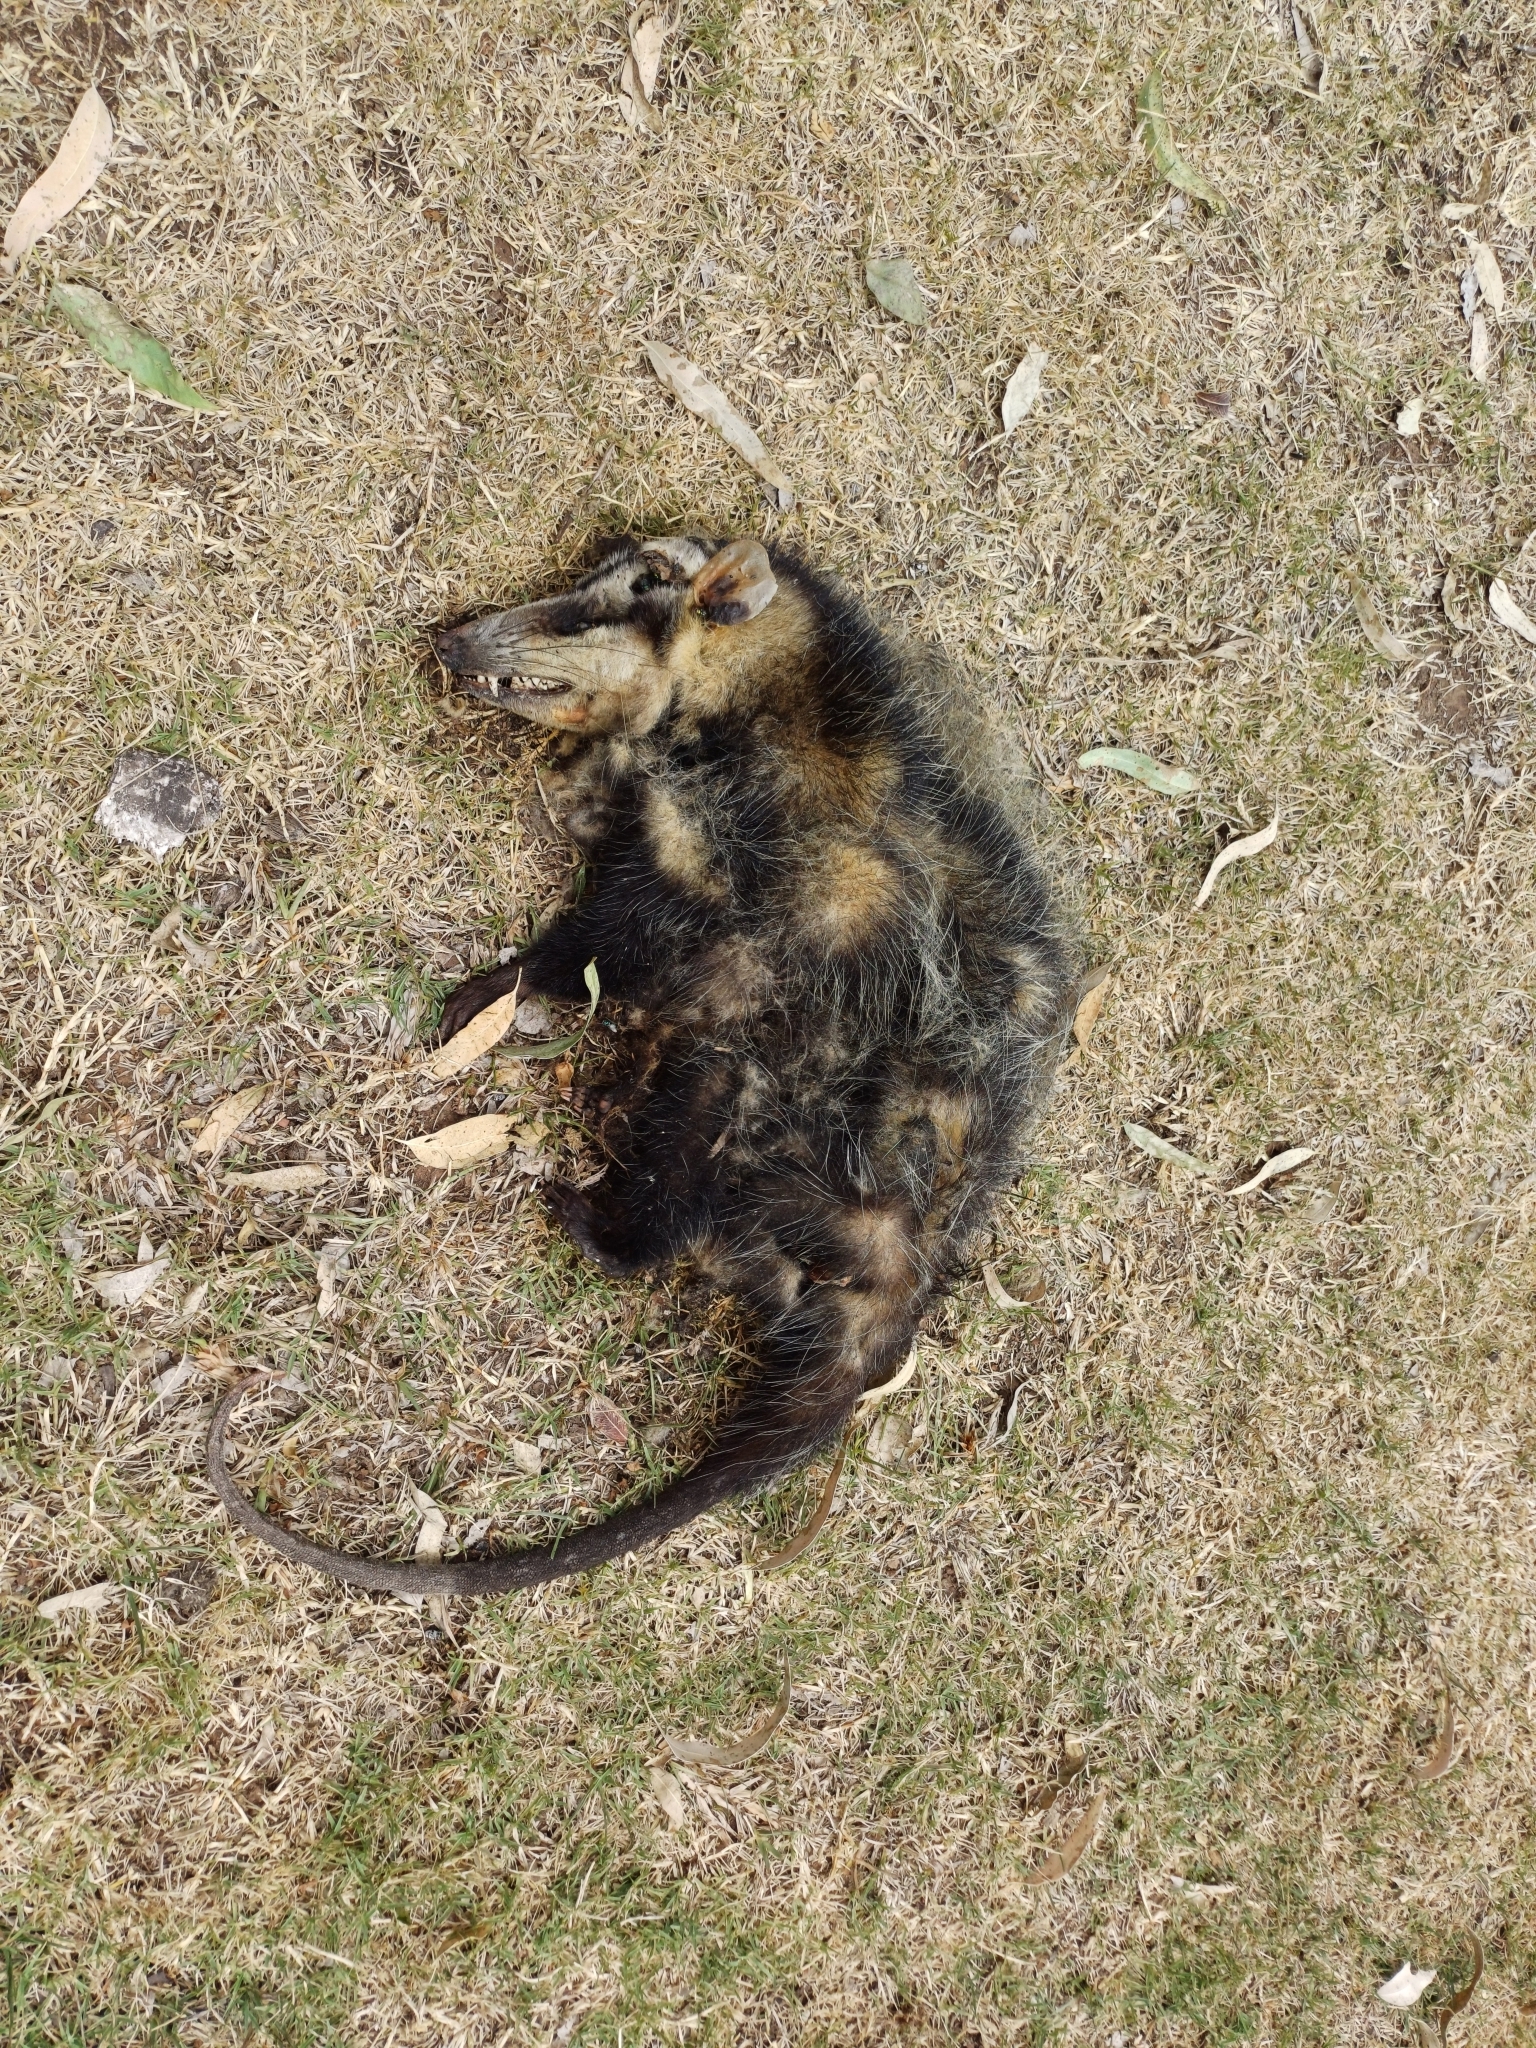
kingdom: Animalia
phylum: Chordata
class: Mammalia
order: Didelphimorphia
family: Didelphidae
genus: Didelphis
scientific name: Didelphis albiventris
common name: White-eared opossum
